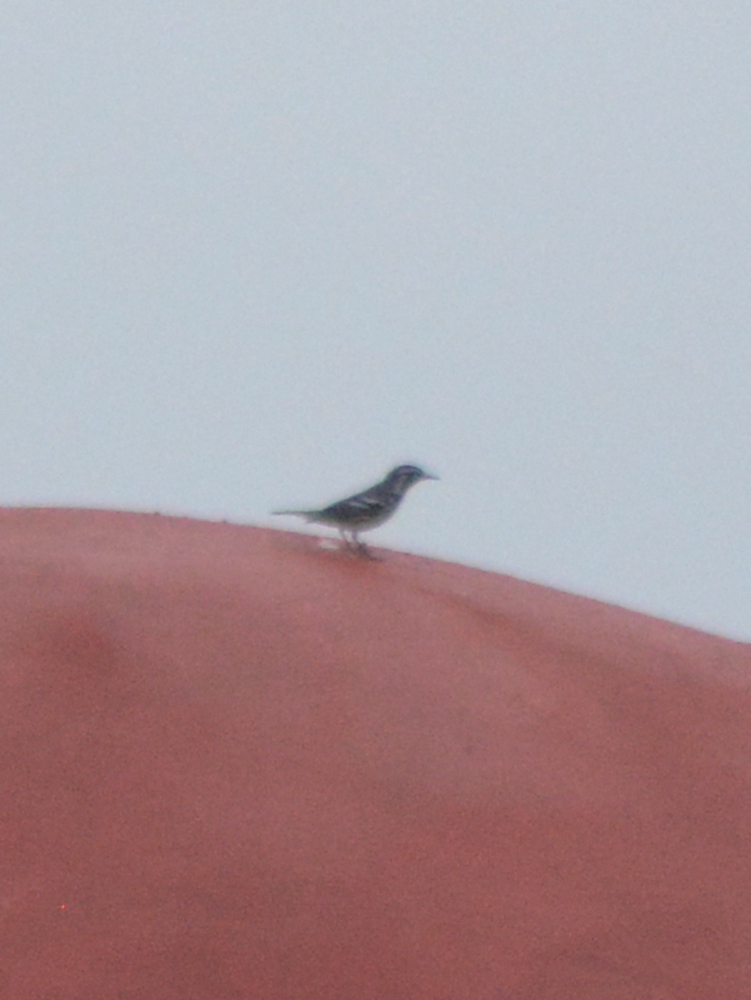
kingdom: Animalia
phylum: Chordata
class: Aves
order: Passeriformes
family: Parulidae
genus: Setophaga
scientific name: Setophaga dominica
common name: Yellow-throated warbler
